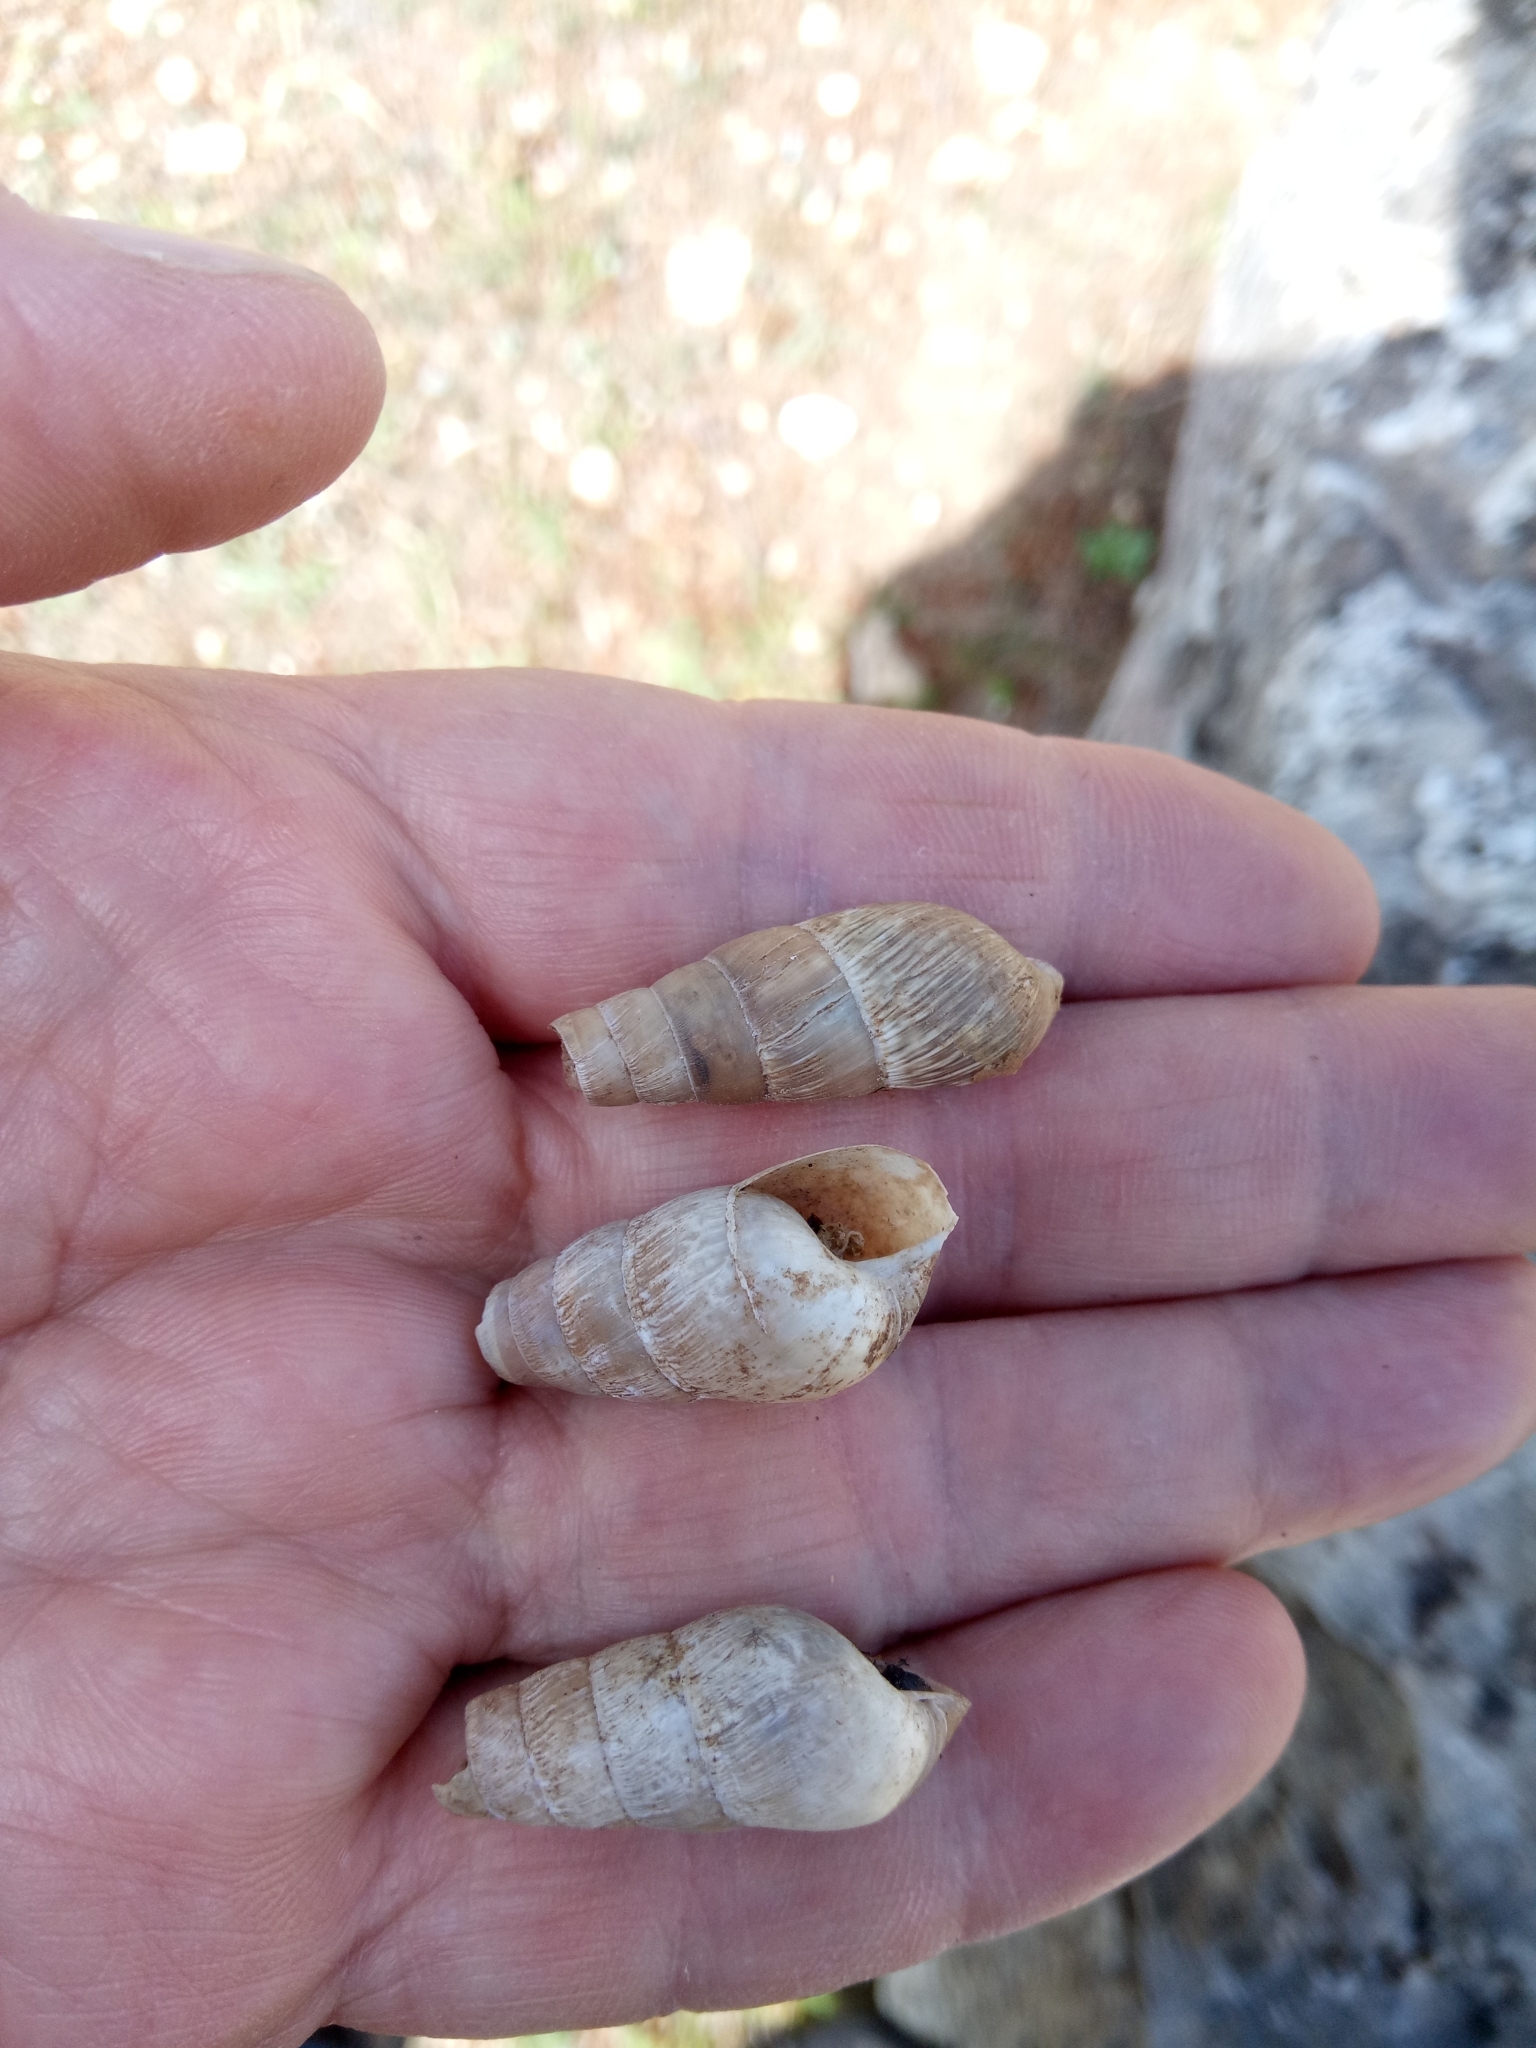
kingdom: Animalia
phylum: Mollusca
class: Gastropoda
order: Stylommatophora
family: Achatinidae
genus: Rumina
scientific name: Rumina decollata
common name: Decollate snail
